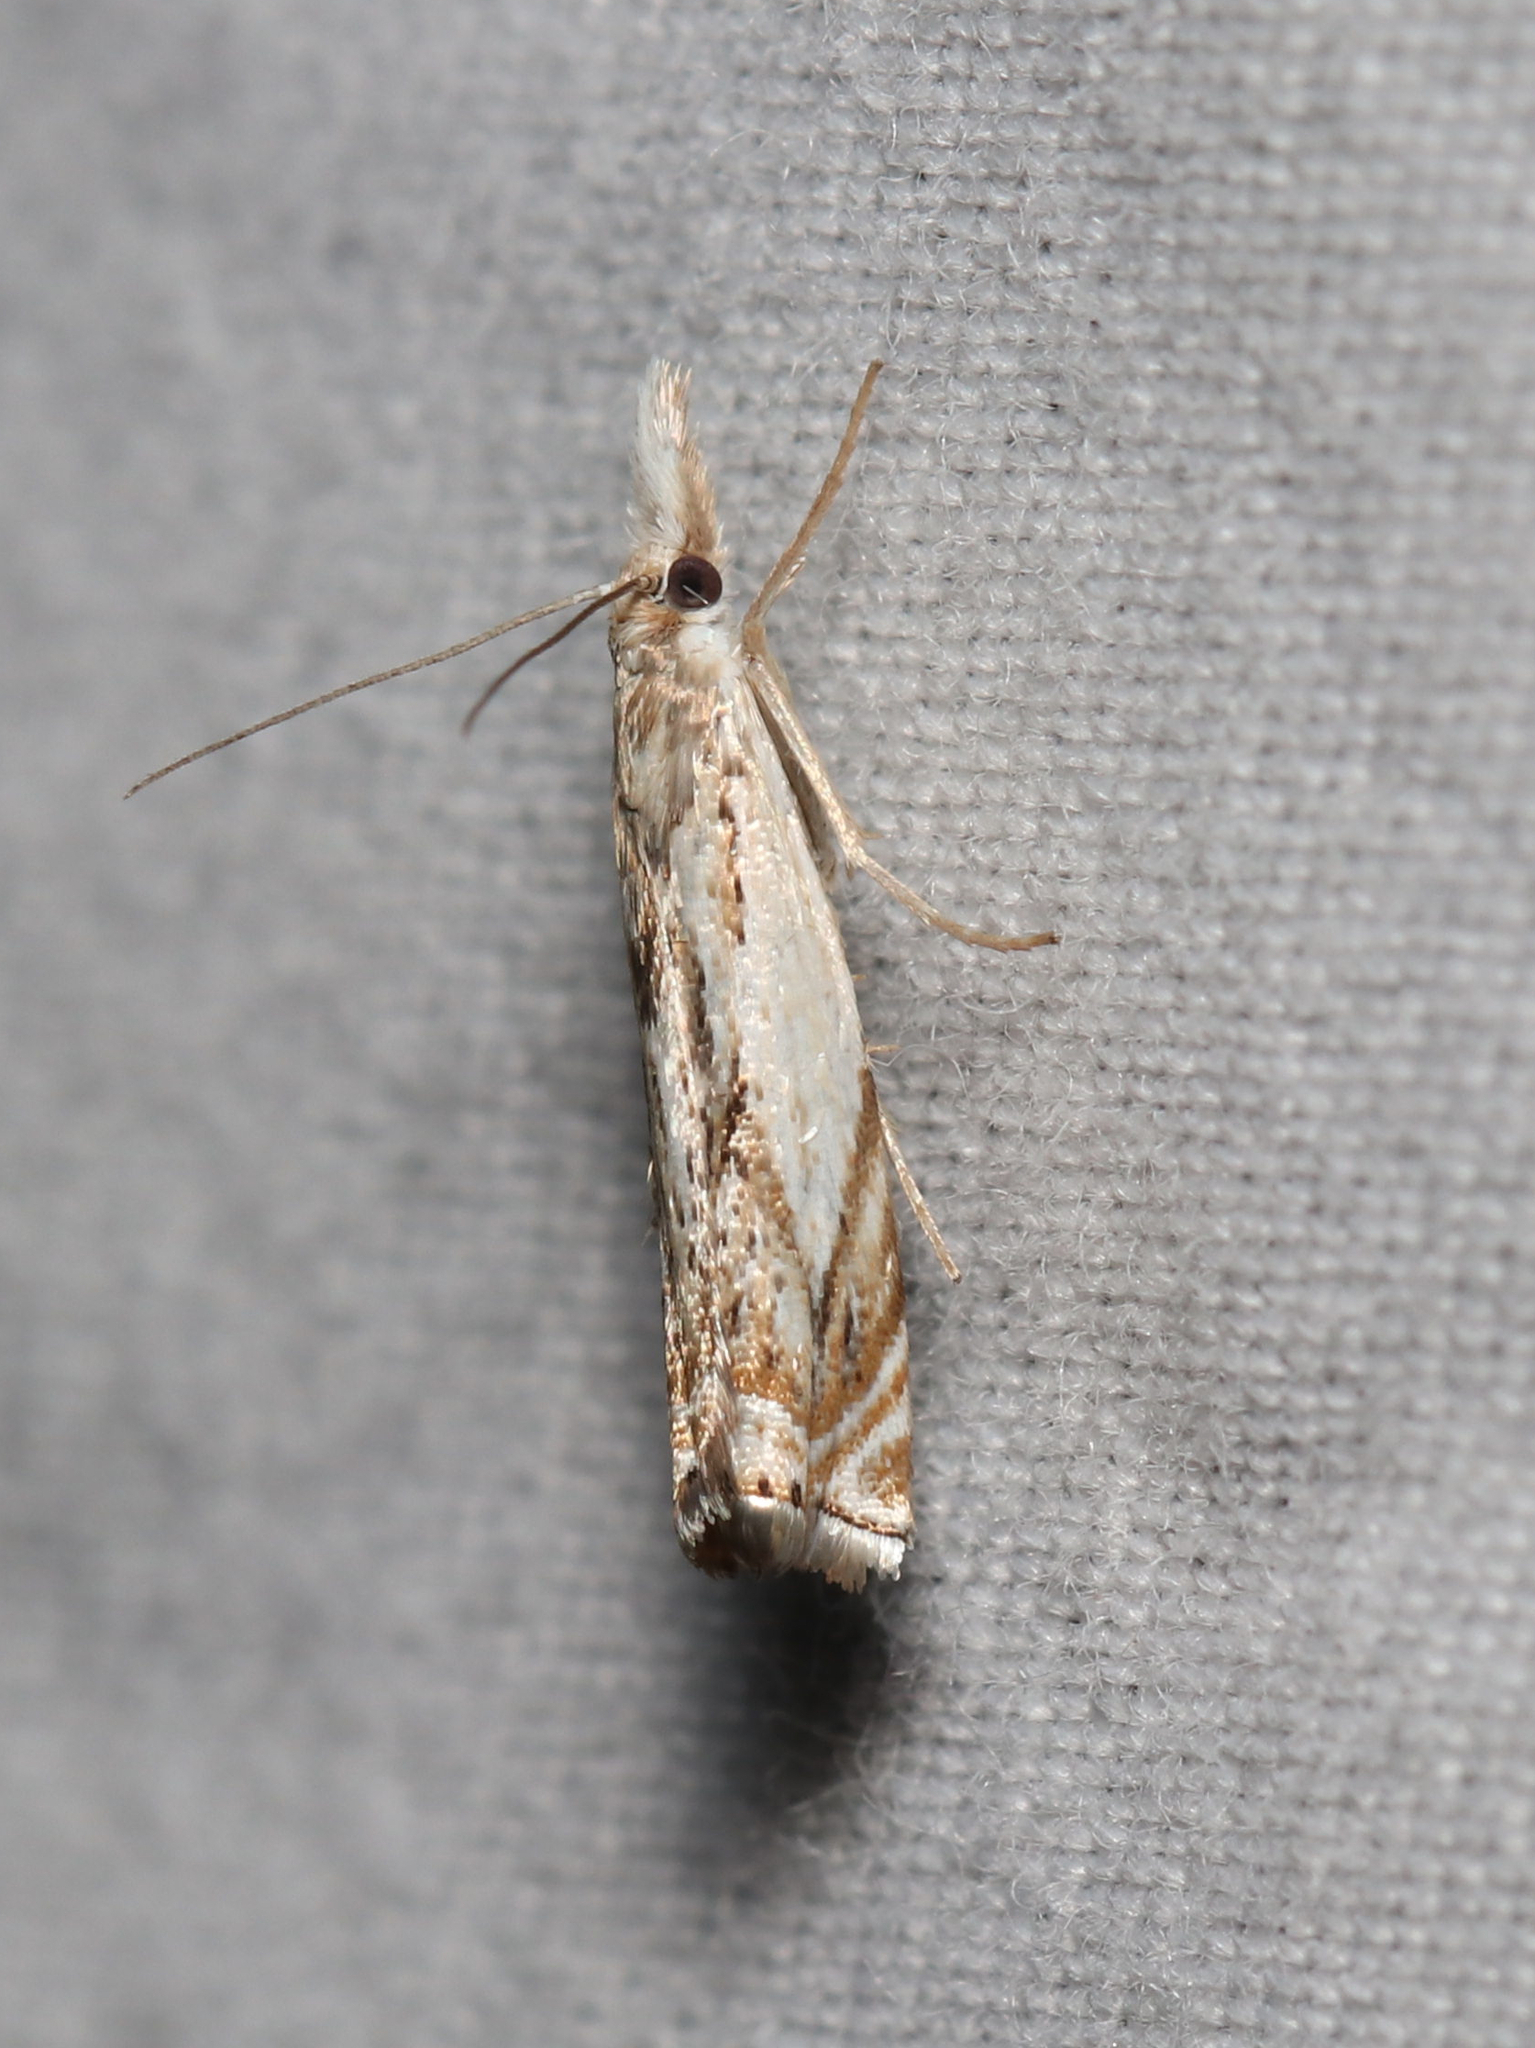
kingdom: Animalia
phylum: Arthropoda
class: Insecta
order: Lepidoptera
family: Crambidae
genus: Crambus
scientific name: Crambus albellus
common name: Small white grass-veneer
